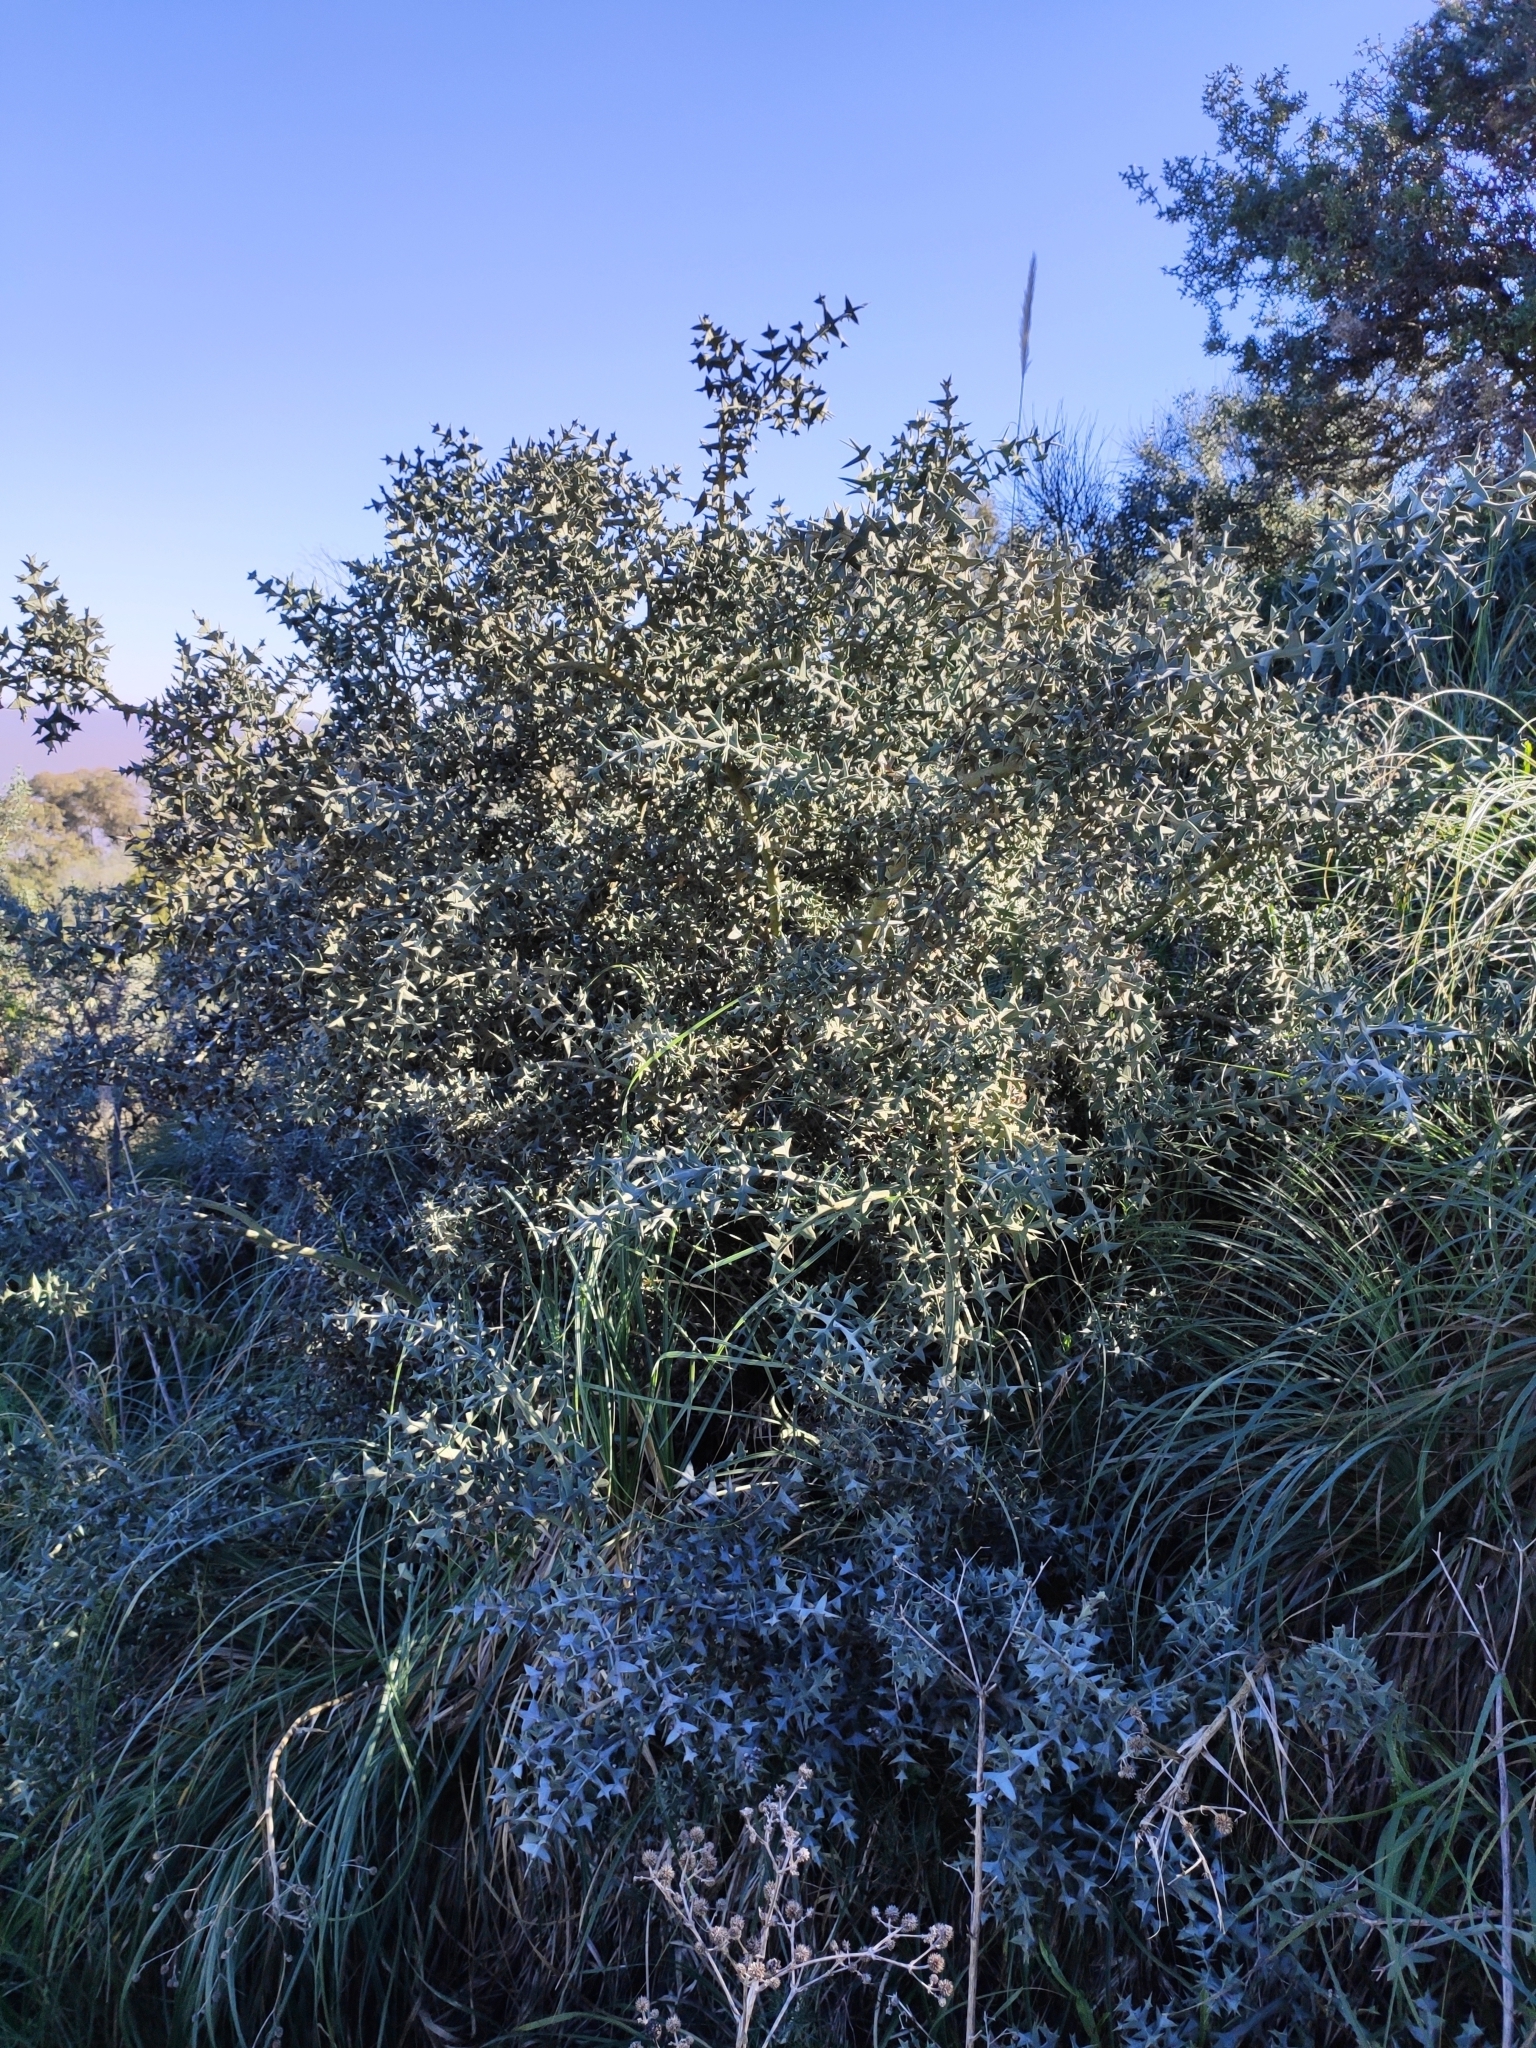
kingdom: Plantae
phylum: Tracheophyta
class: Magnoliopsida
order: Rosales
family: Rhamnaceae
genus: Colletia
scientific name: Colletia paradoxa
